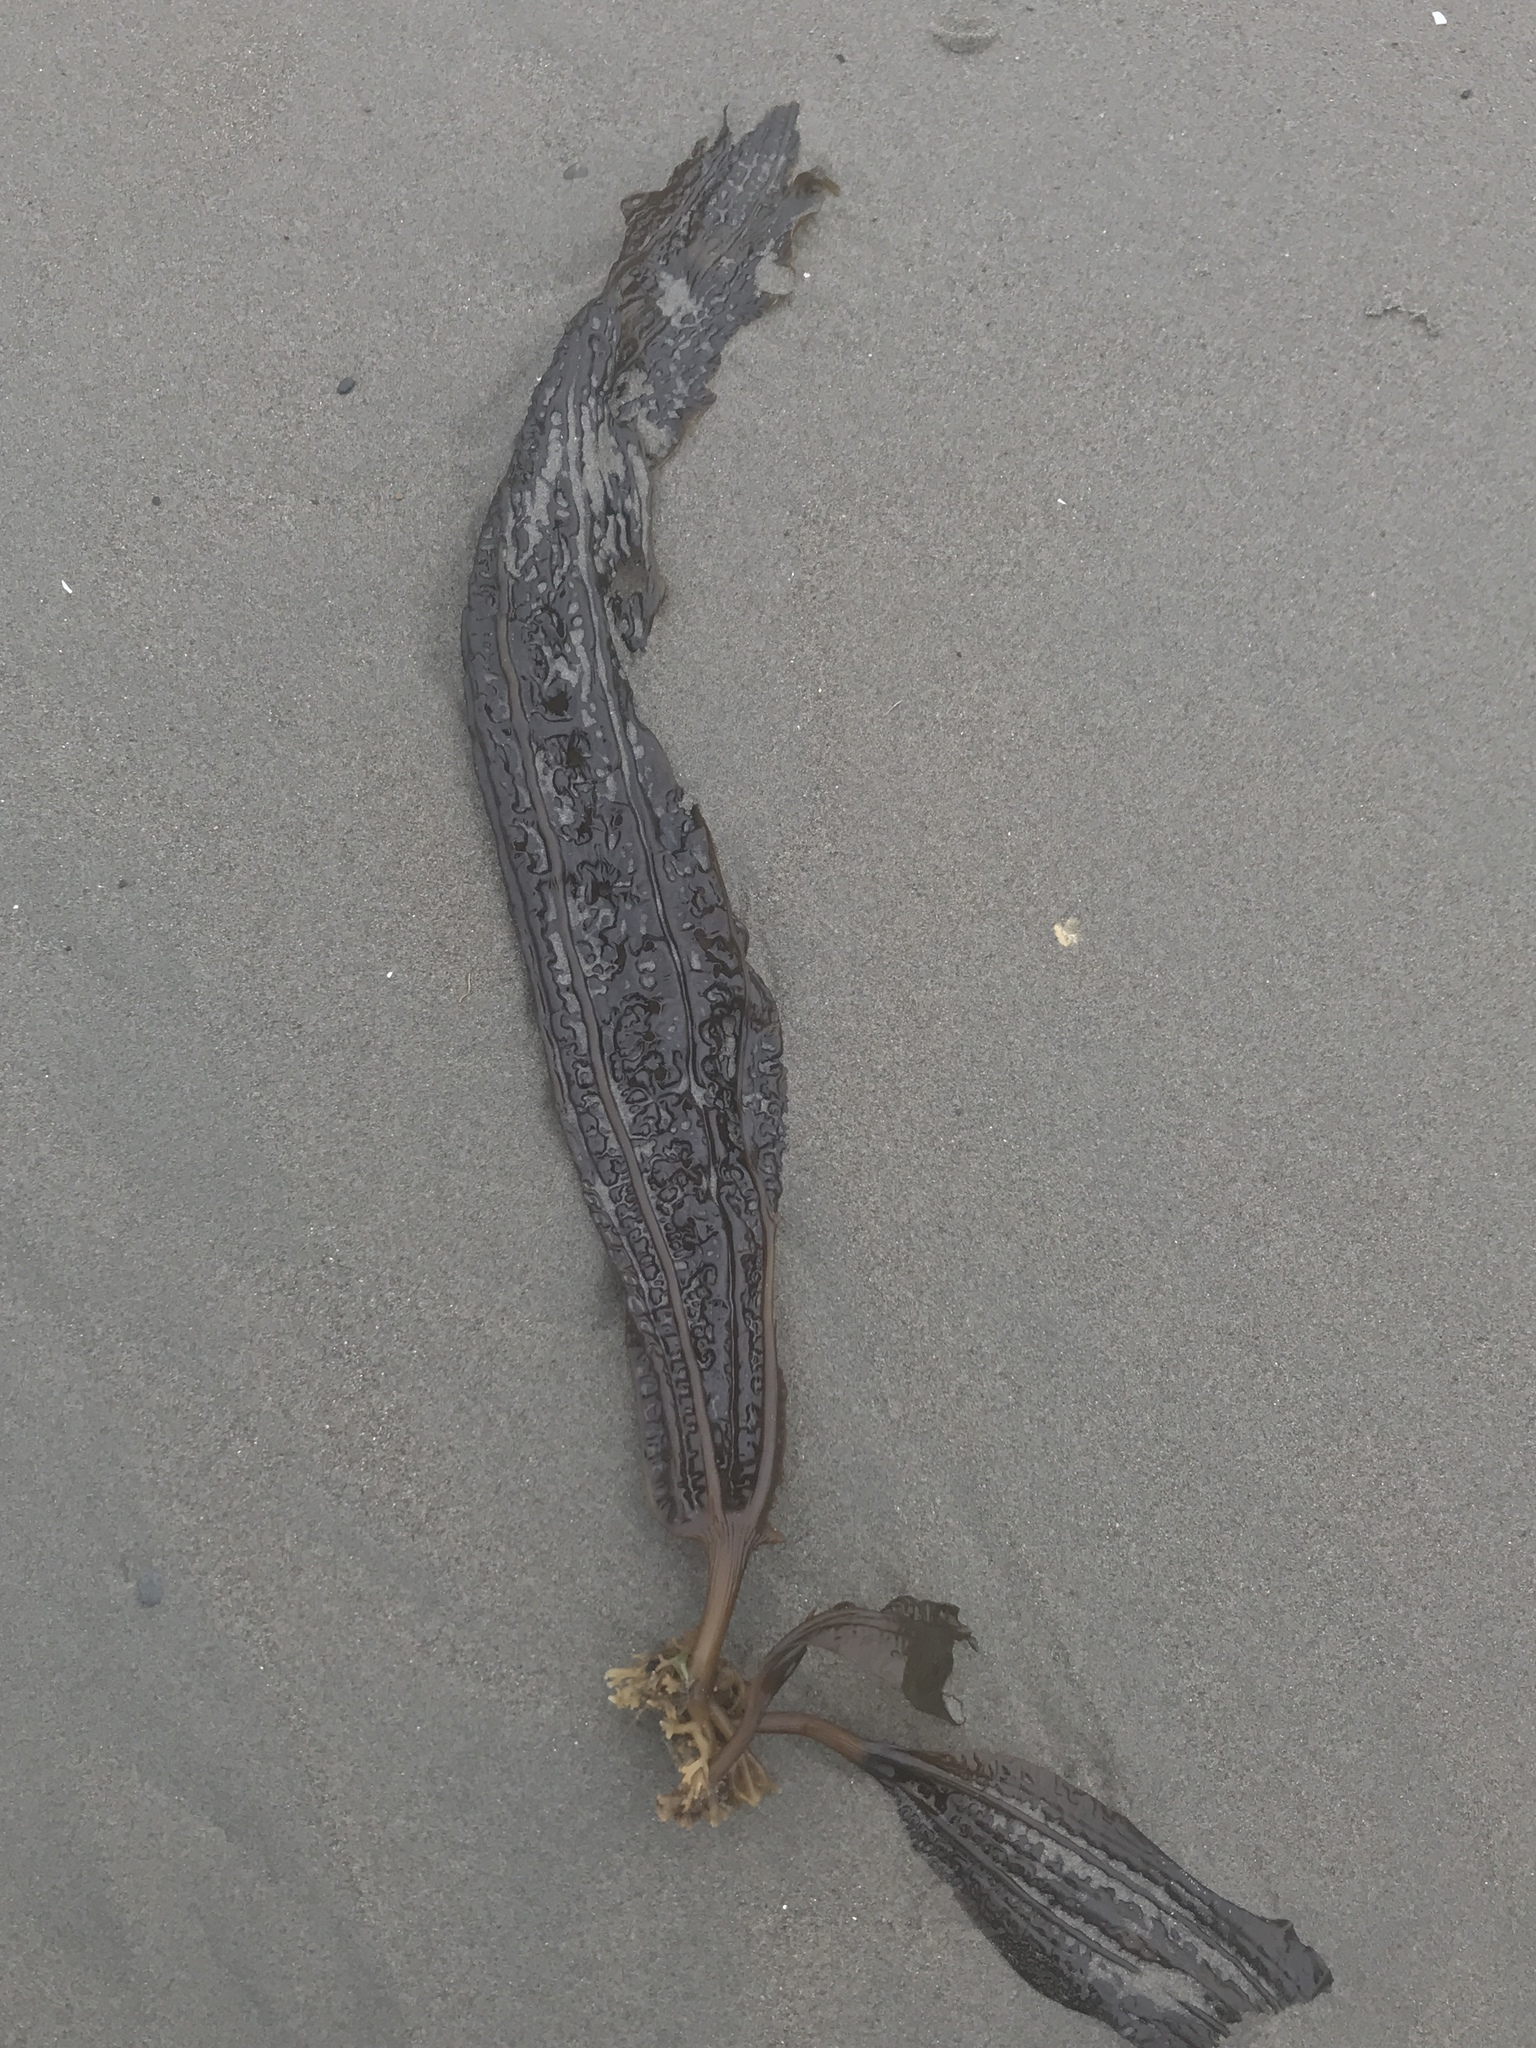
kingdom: Chromista
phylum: Ochrophyta
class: Phaeophyceae
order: Laminariales
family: Costariaceae
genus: Costaria
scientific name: Costaria costata
